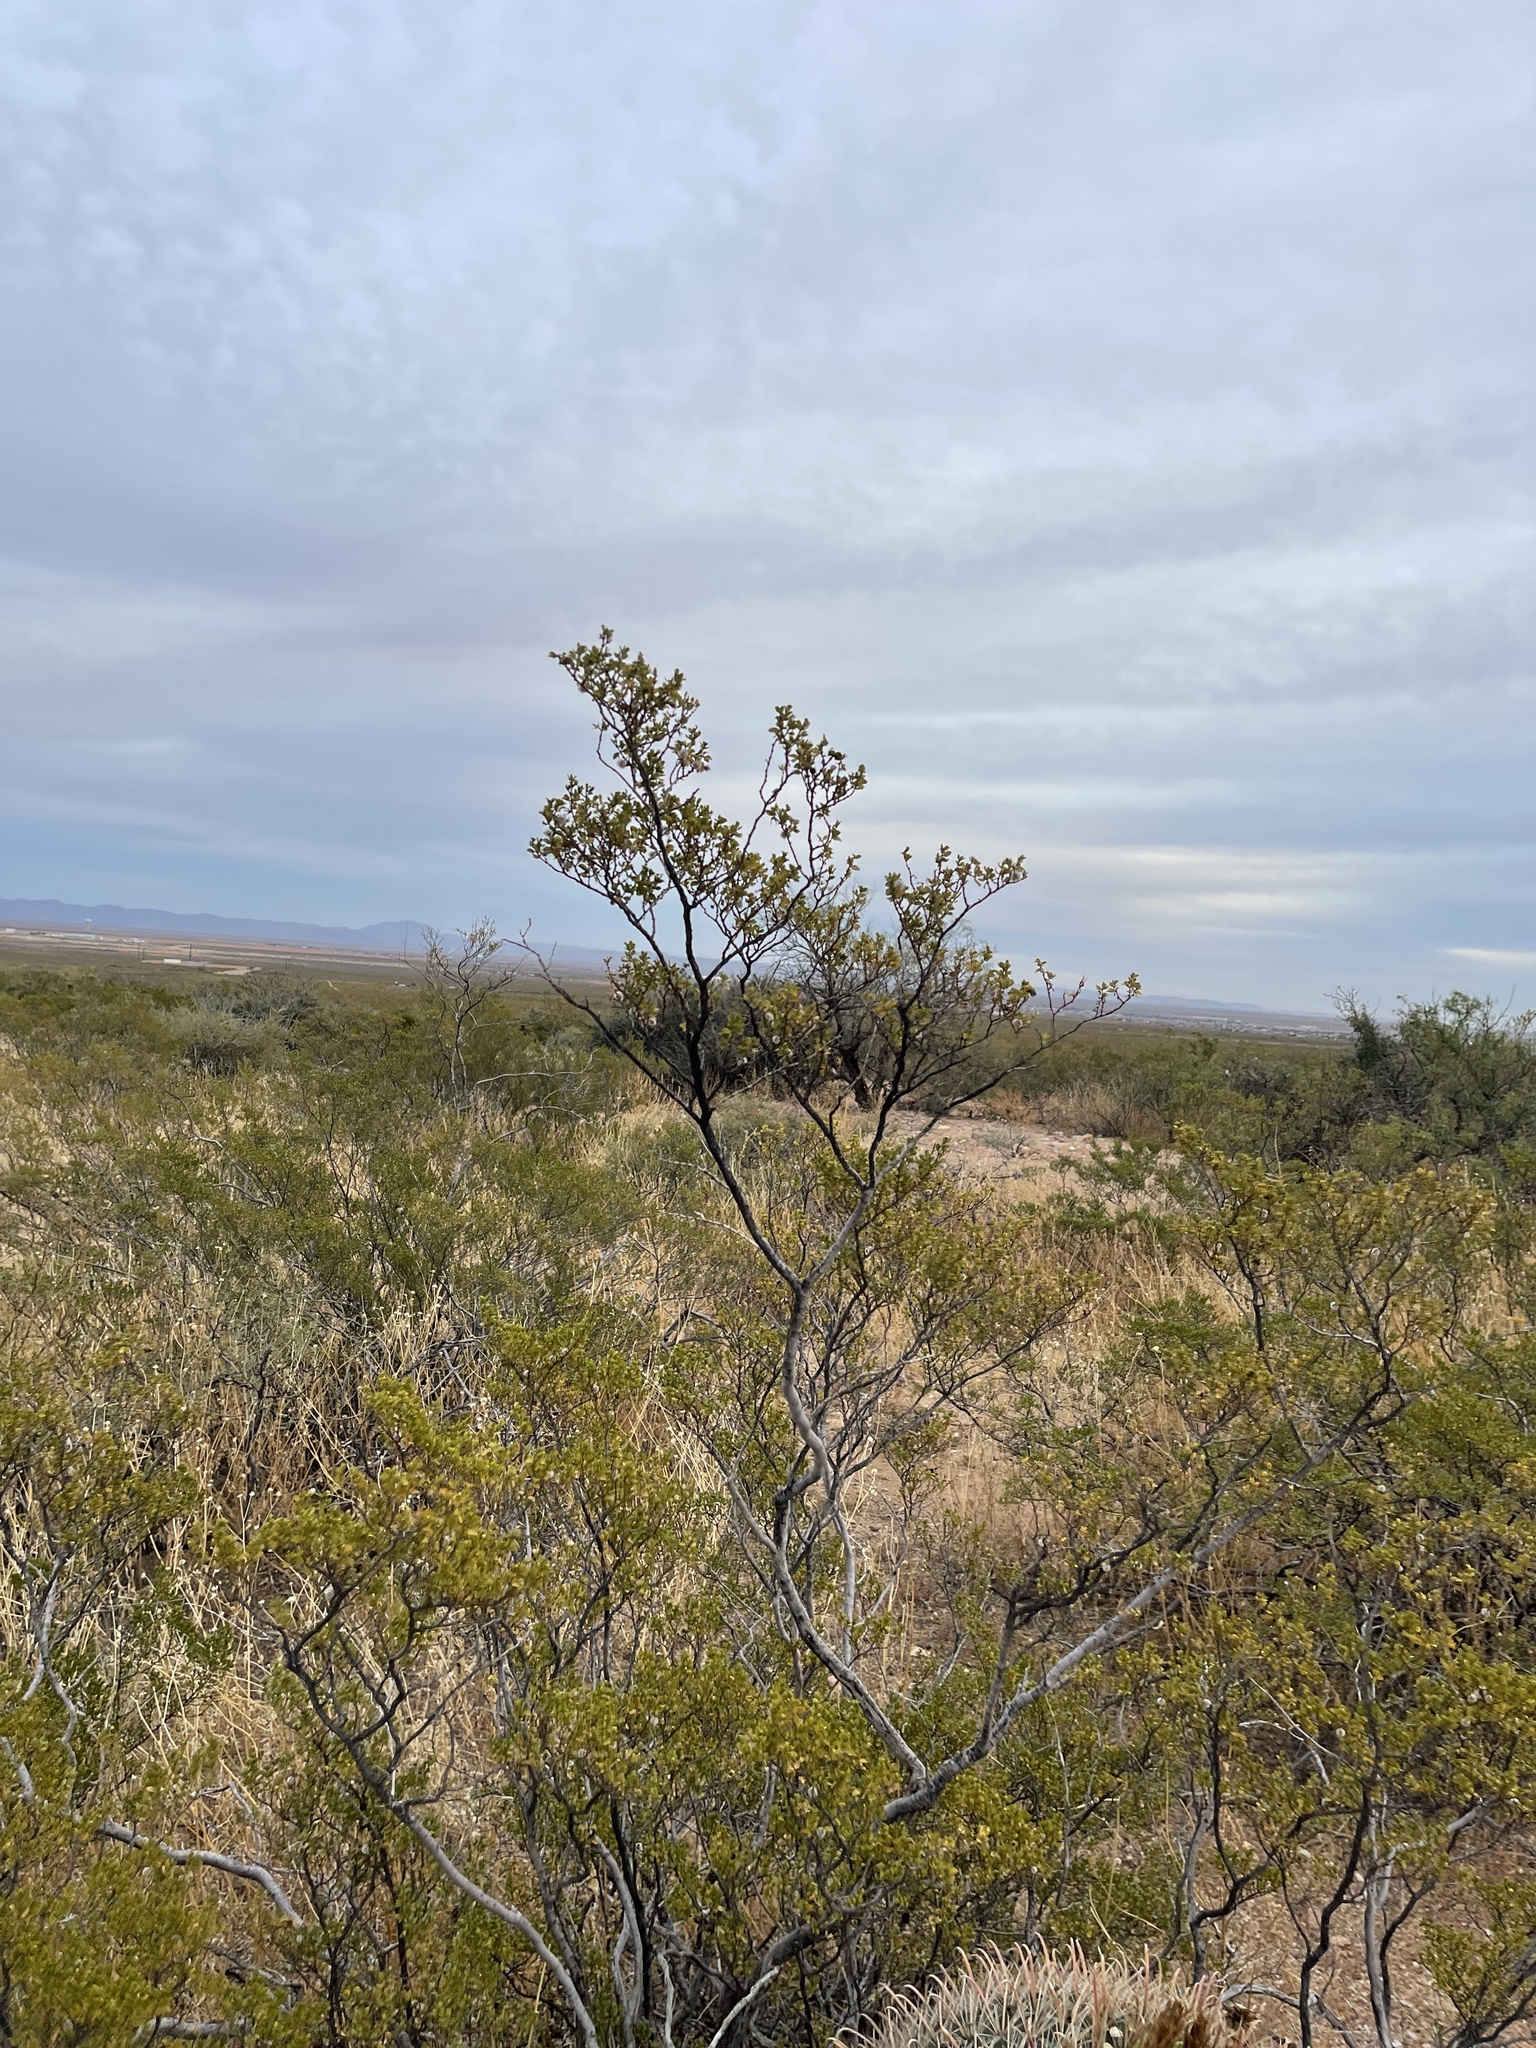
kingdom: Plantae
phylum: Tracheophyta
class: Magnoliopsida
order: Zygophyllales
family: Zygophyllaceae
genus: Larrea
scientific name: Larrea tridentata
